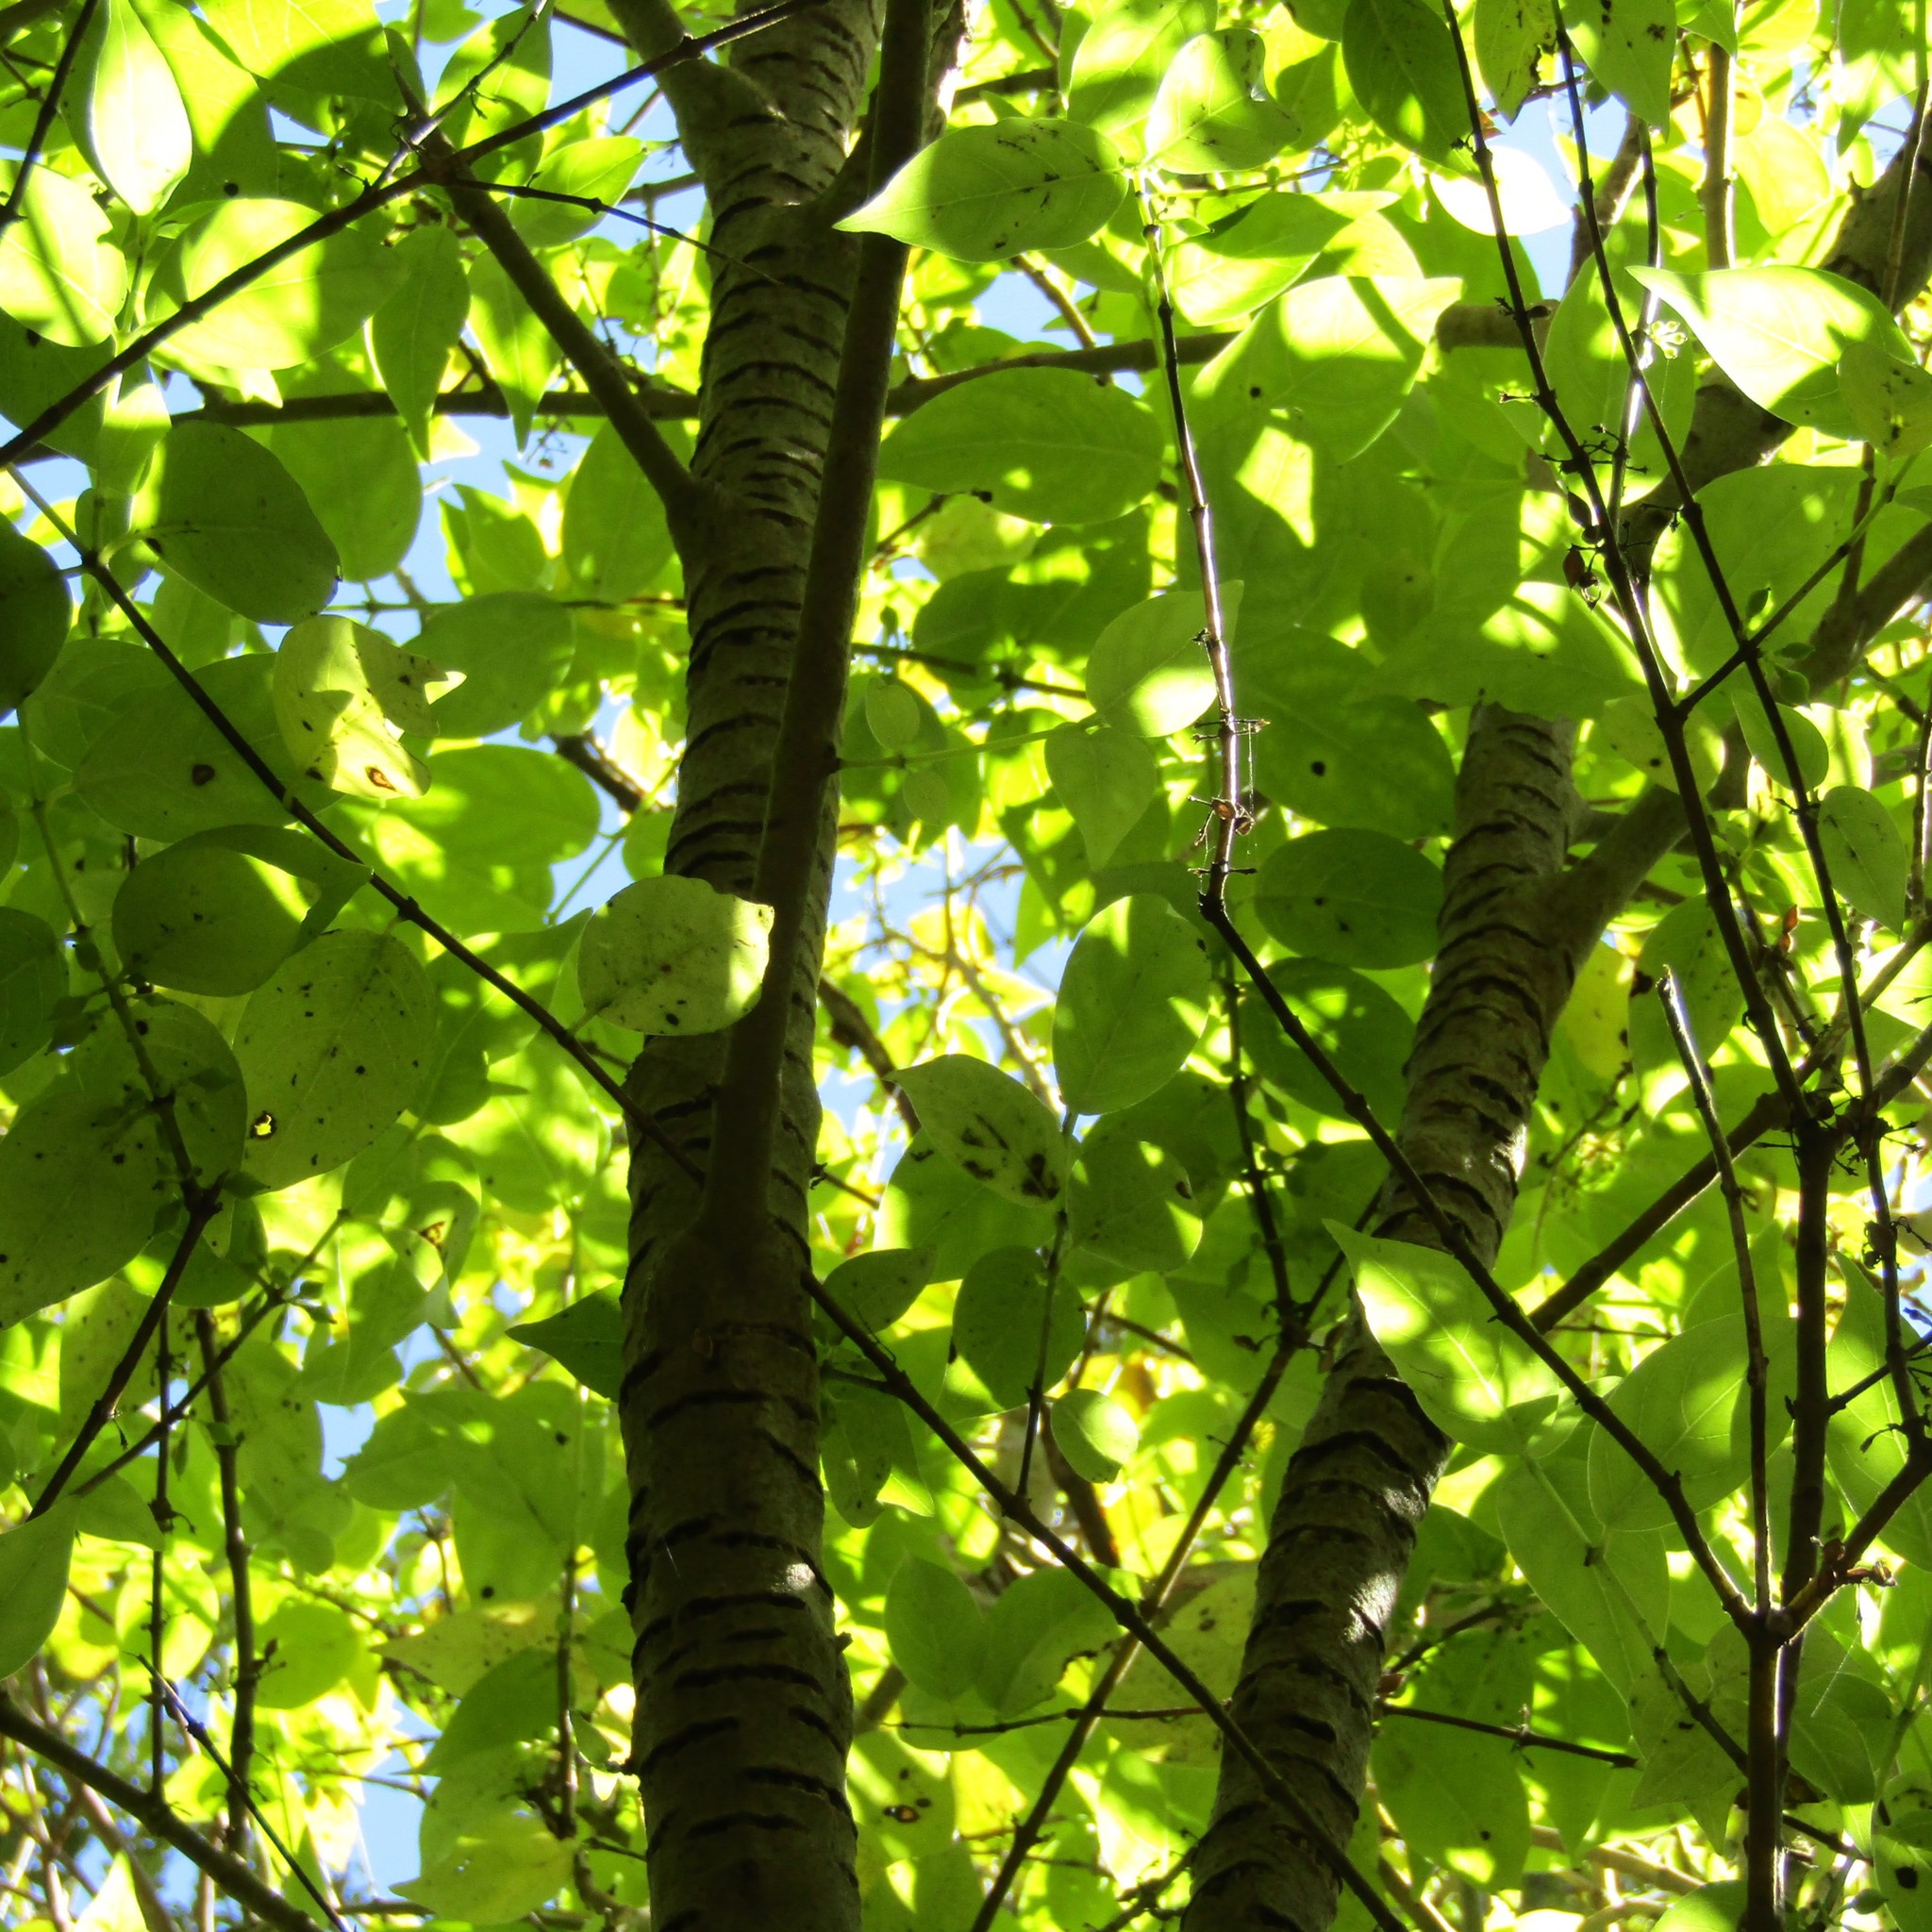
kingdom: Plantae
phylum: Tracheophyta
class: Magnoliopsida
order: Gentianales
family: Loganiaceae
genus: Geniostoma
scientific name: Geniostoma ligustrifolium
